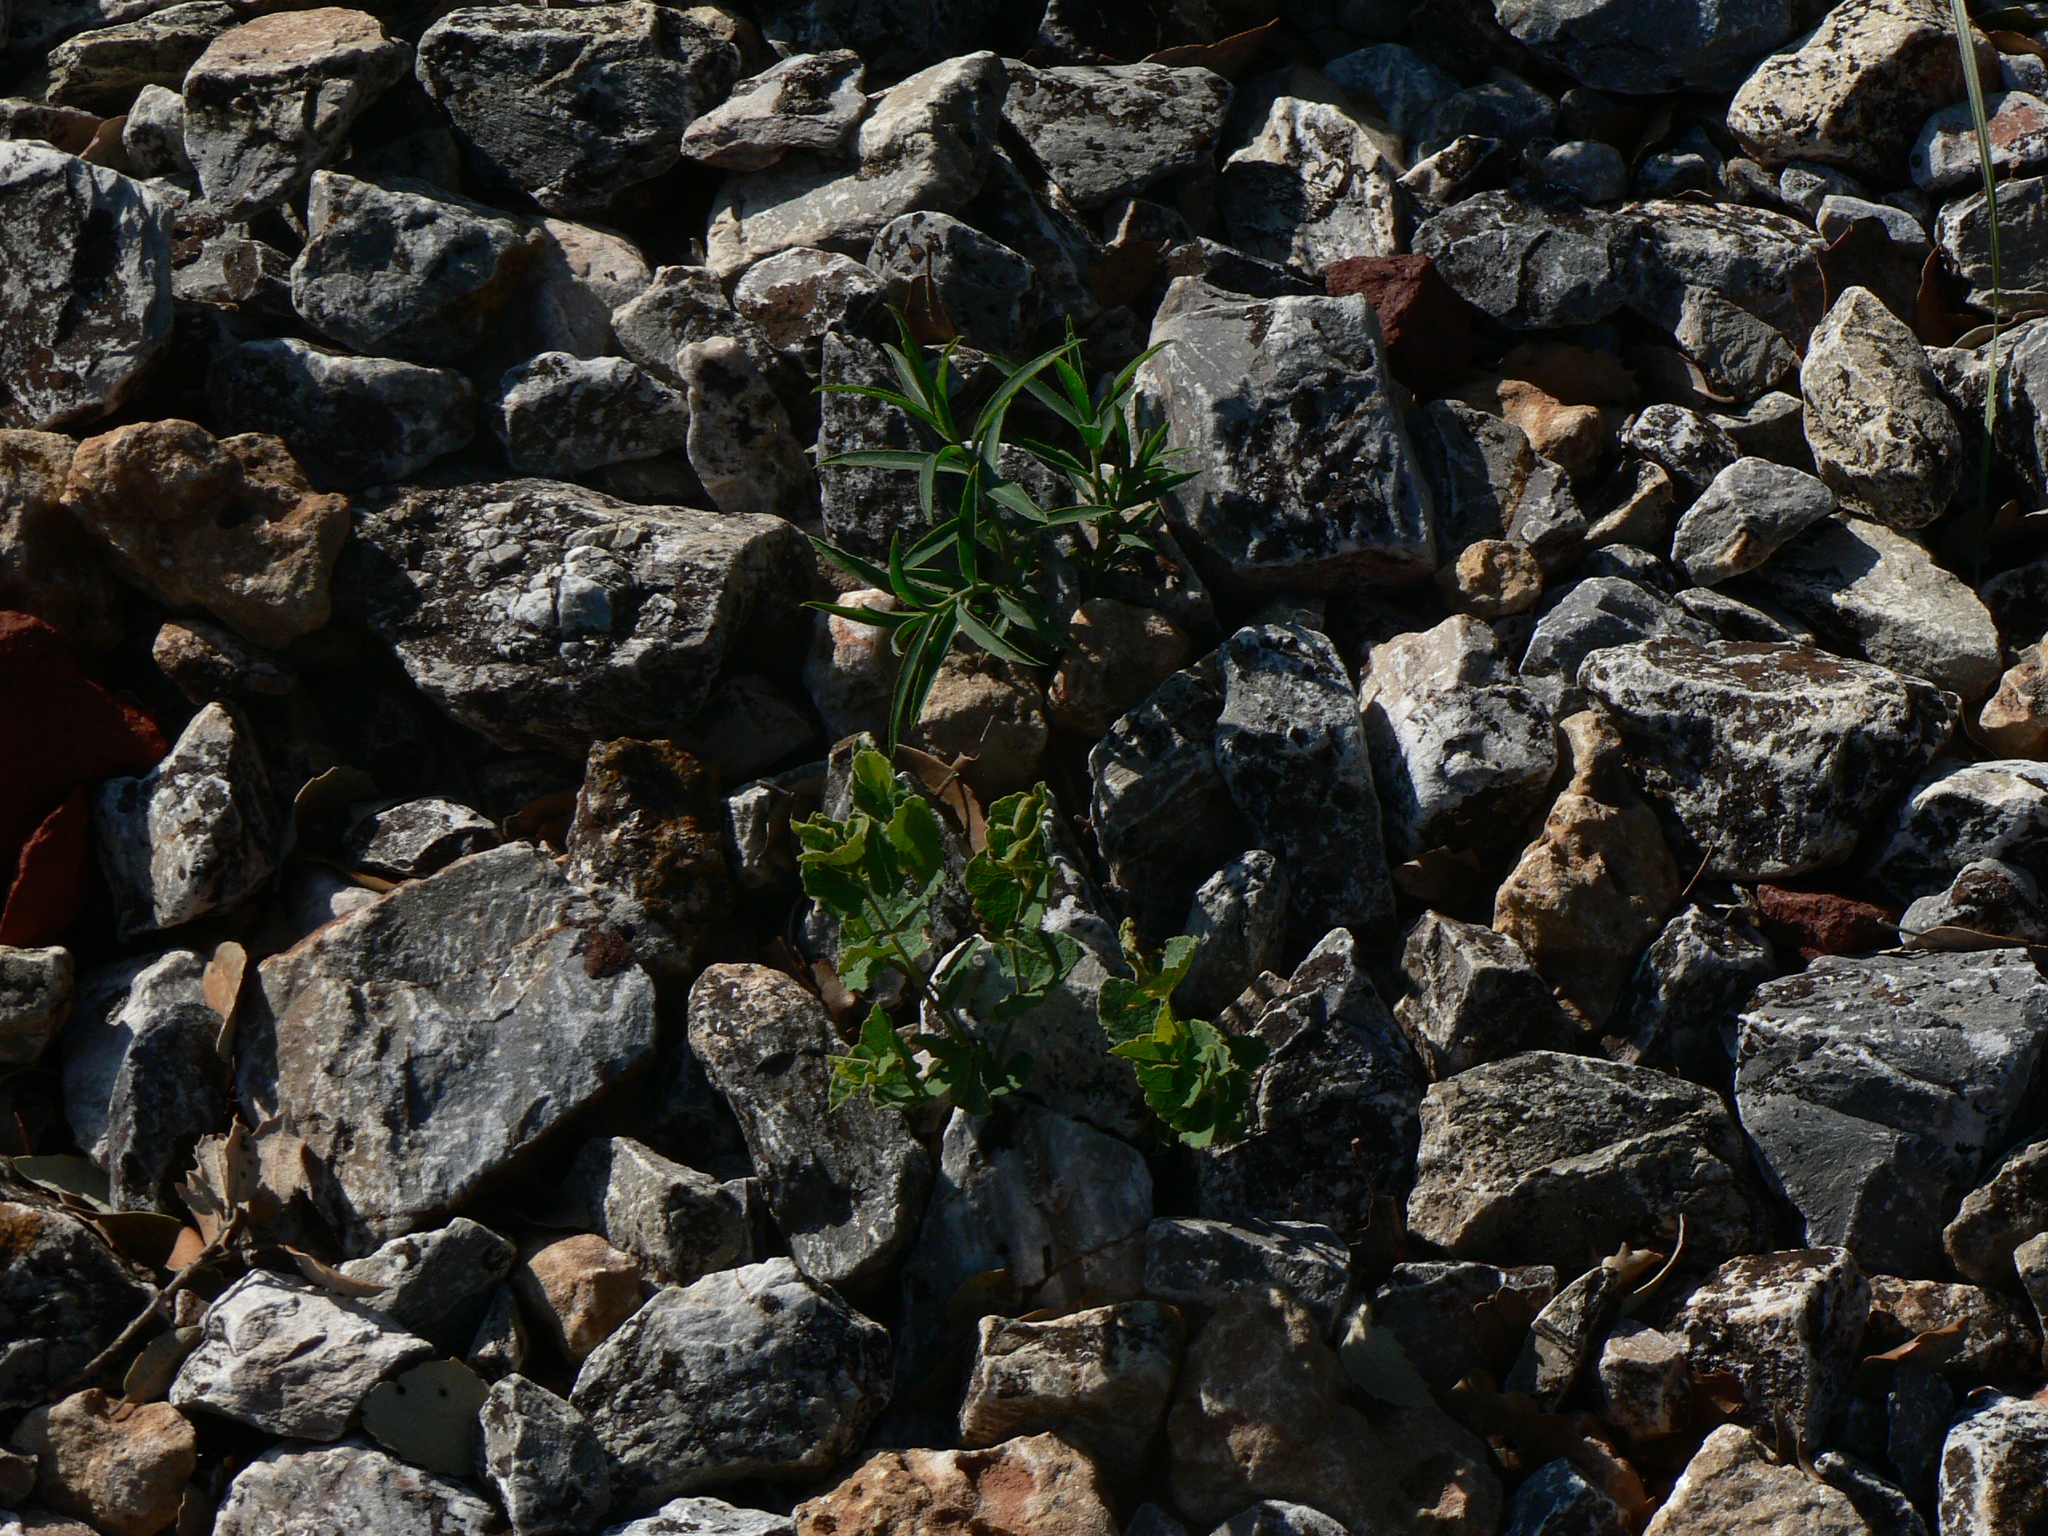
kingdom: Plantae
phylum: Tracheophyta
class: Magnoliopsida
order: Piperales
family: Aristolochiaceae
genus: Aristolochia
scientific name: Aristolochia pistolochia
